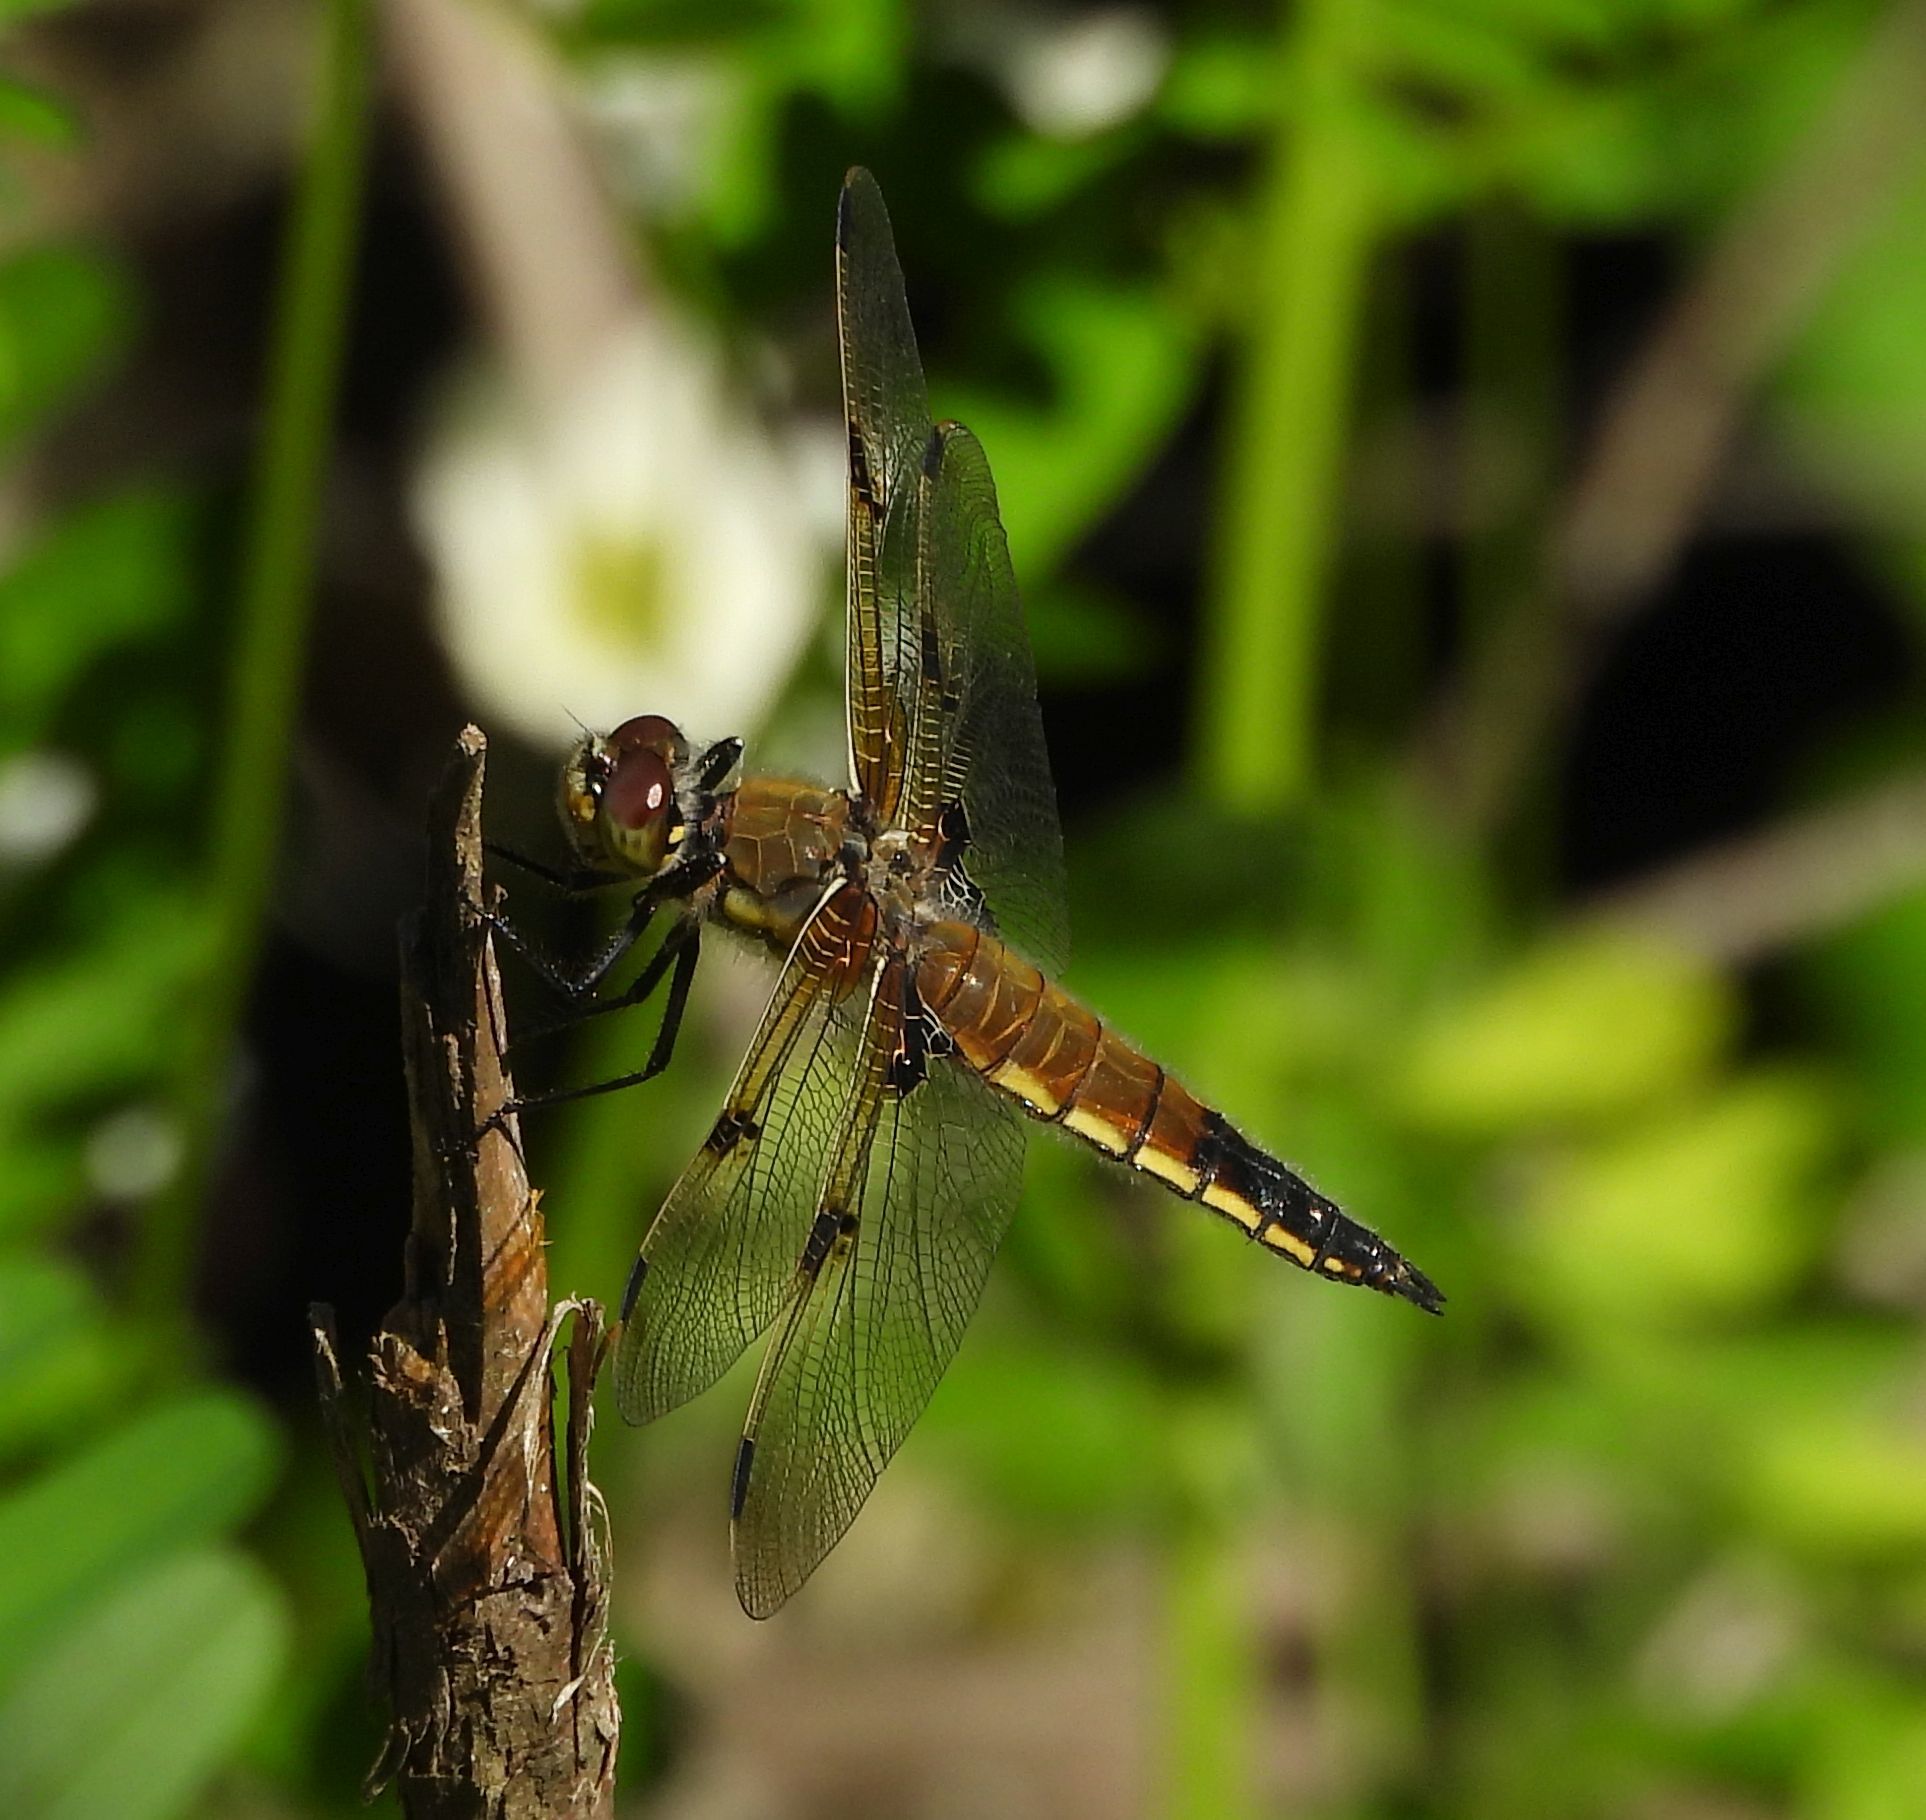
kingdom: Animalia
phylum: Arthropoda
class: Insecta
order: Odonata
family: Libellulidae
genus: Libellula
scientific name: Libellula quadrimaculata
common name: Four-spotted chaser
